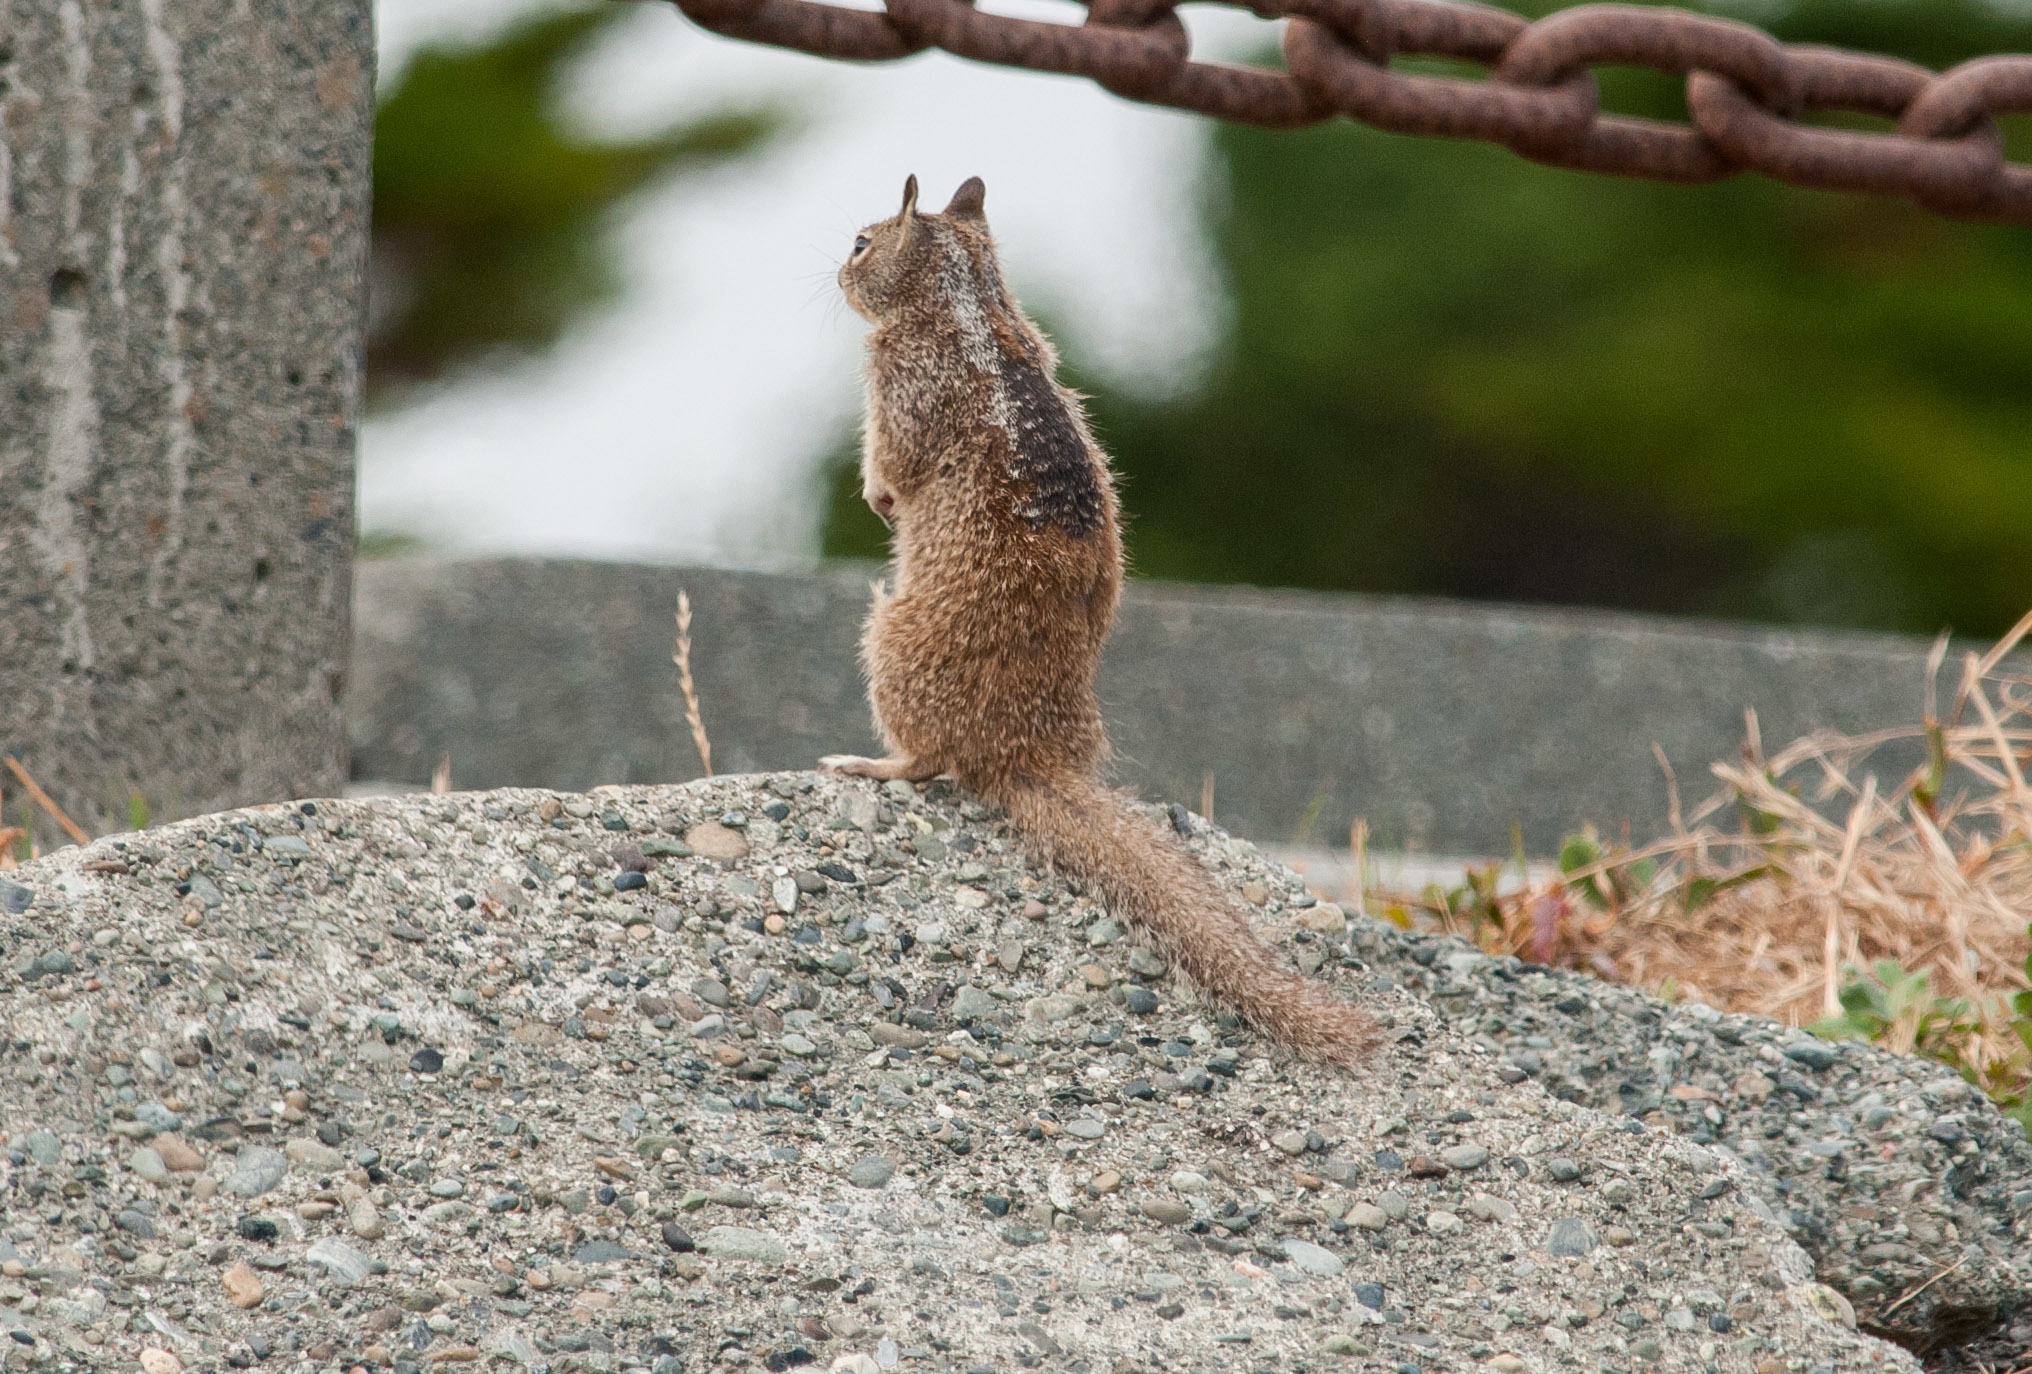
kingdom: Animalia
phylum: Chordata
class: Mammalia
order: Rodentia
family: Sciuridae
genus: Otospermophilus
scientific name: Otospermophilus beecheyi
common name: California ground squirrel
